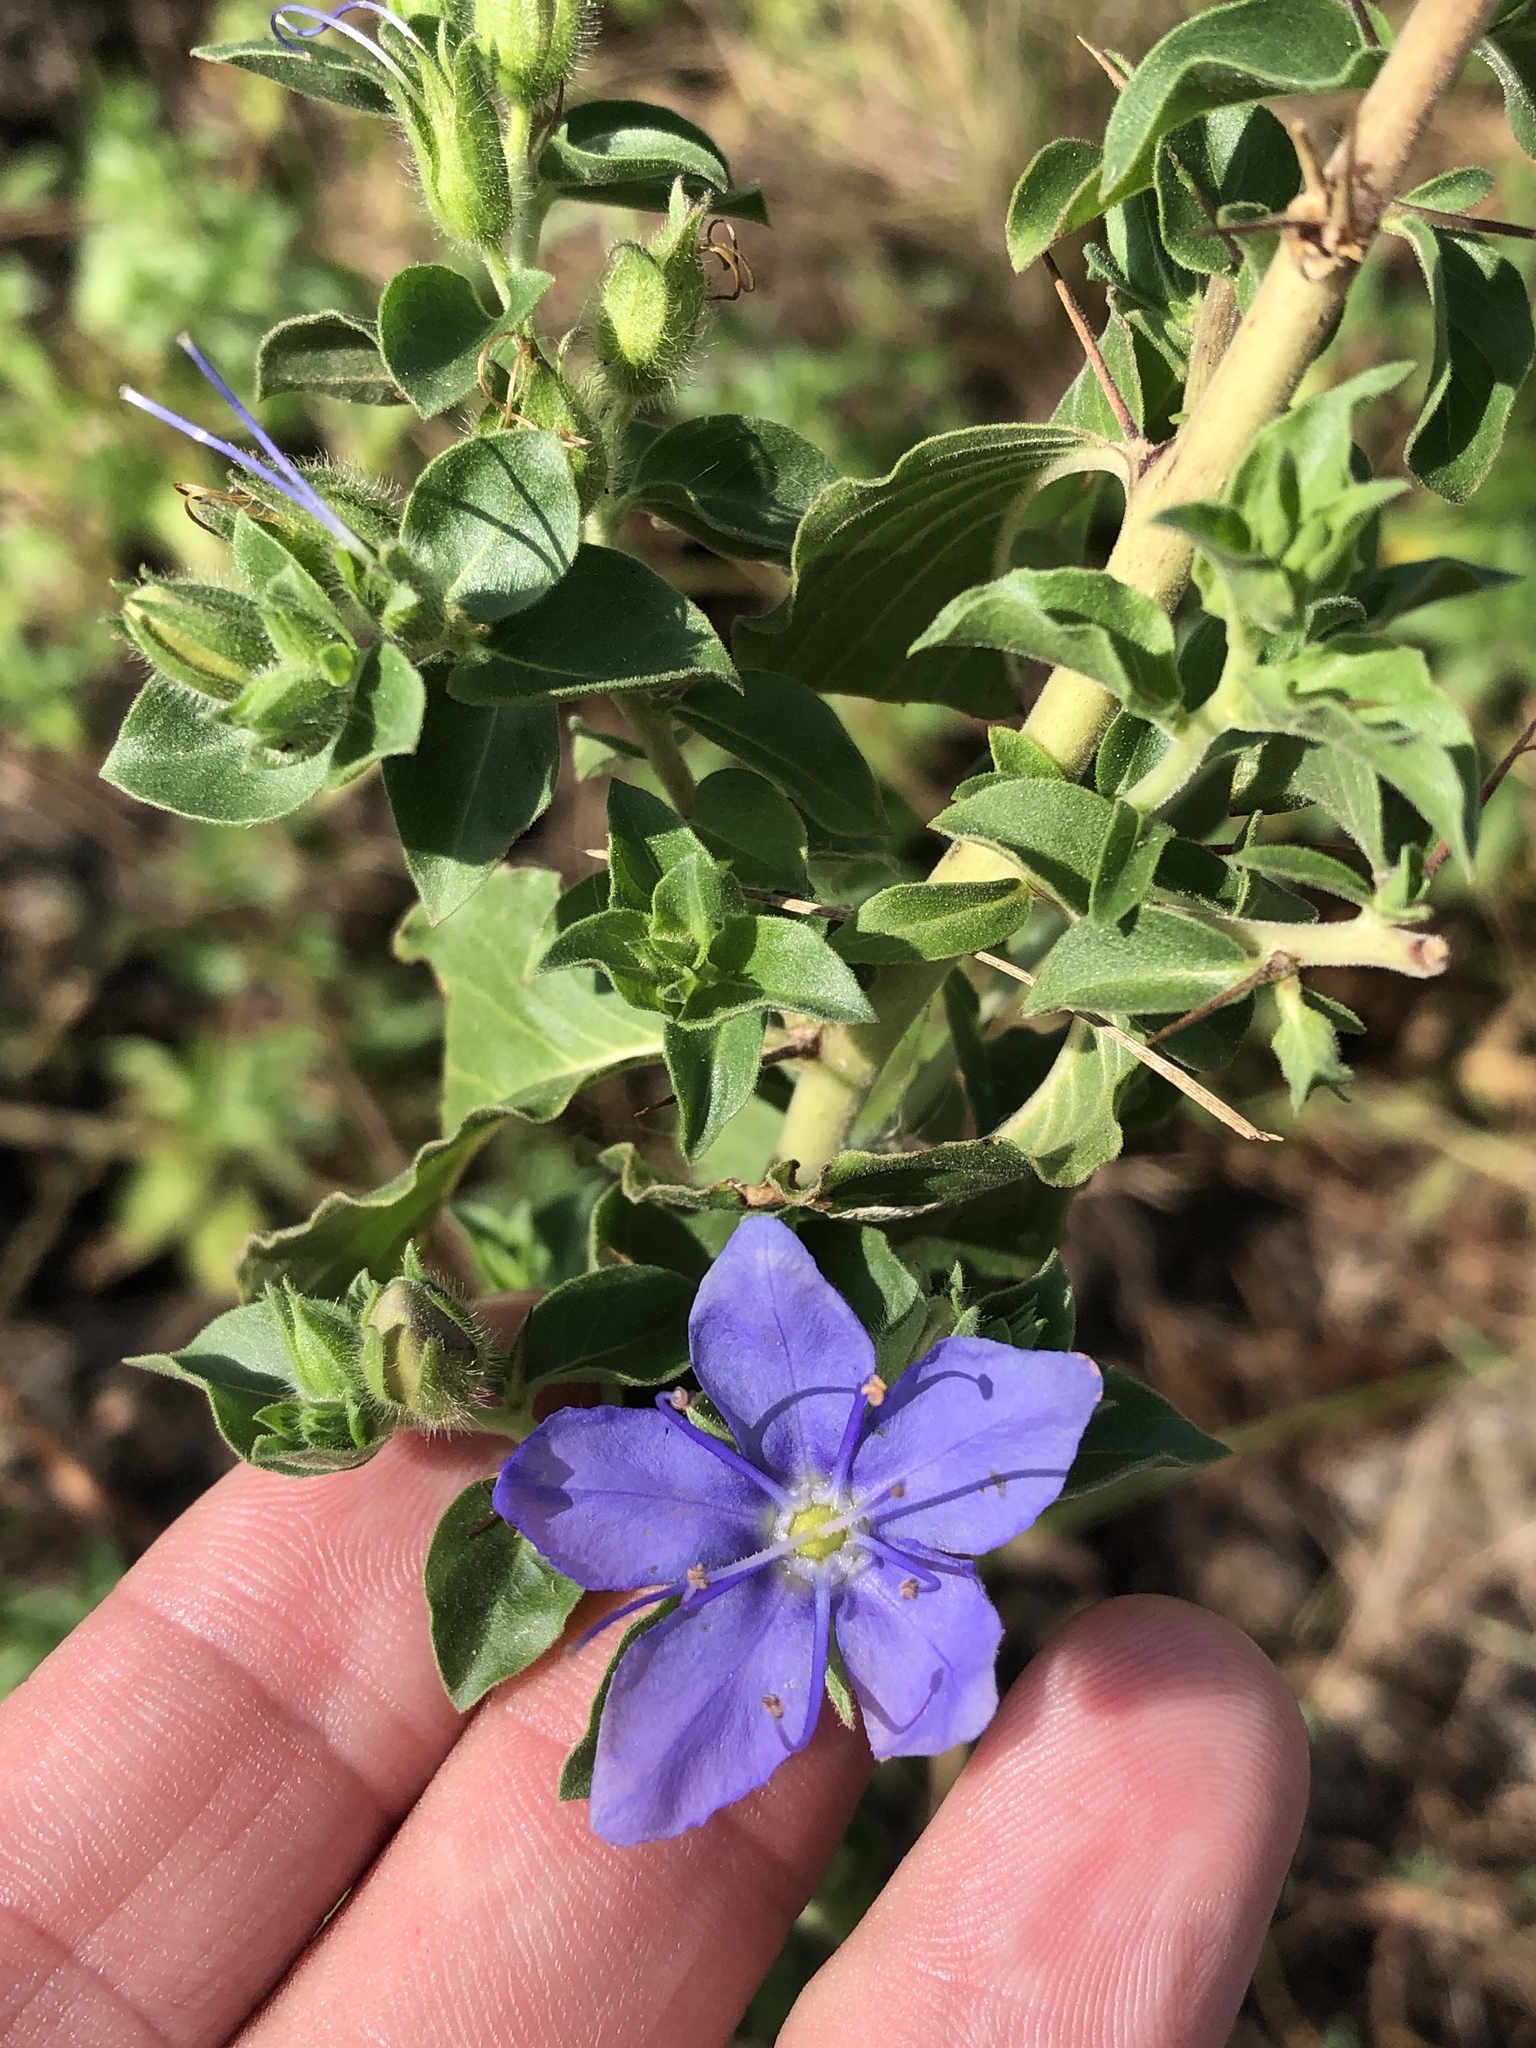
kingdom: Plantae
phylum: Tracheophyta
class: Magnoliopsida
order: Solanales
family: Hydroleaceae
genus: Hydrolea
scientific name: Hydrolea ovata
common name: Ovate false fiddleleaf
